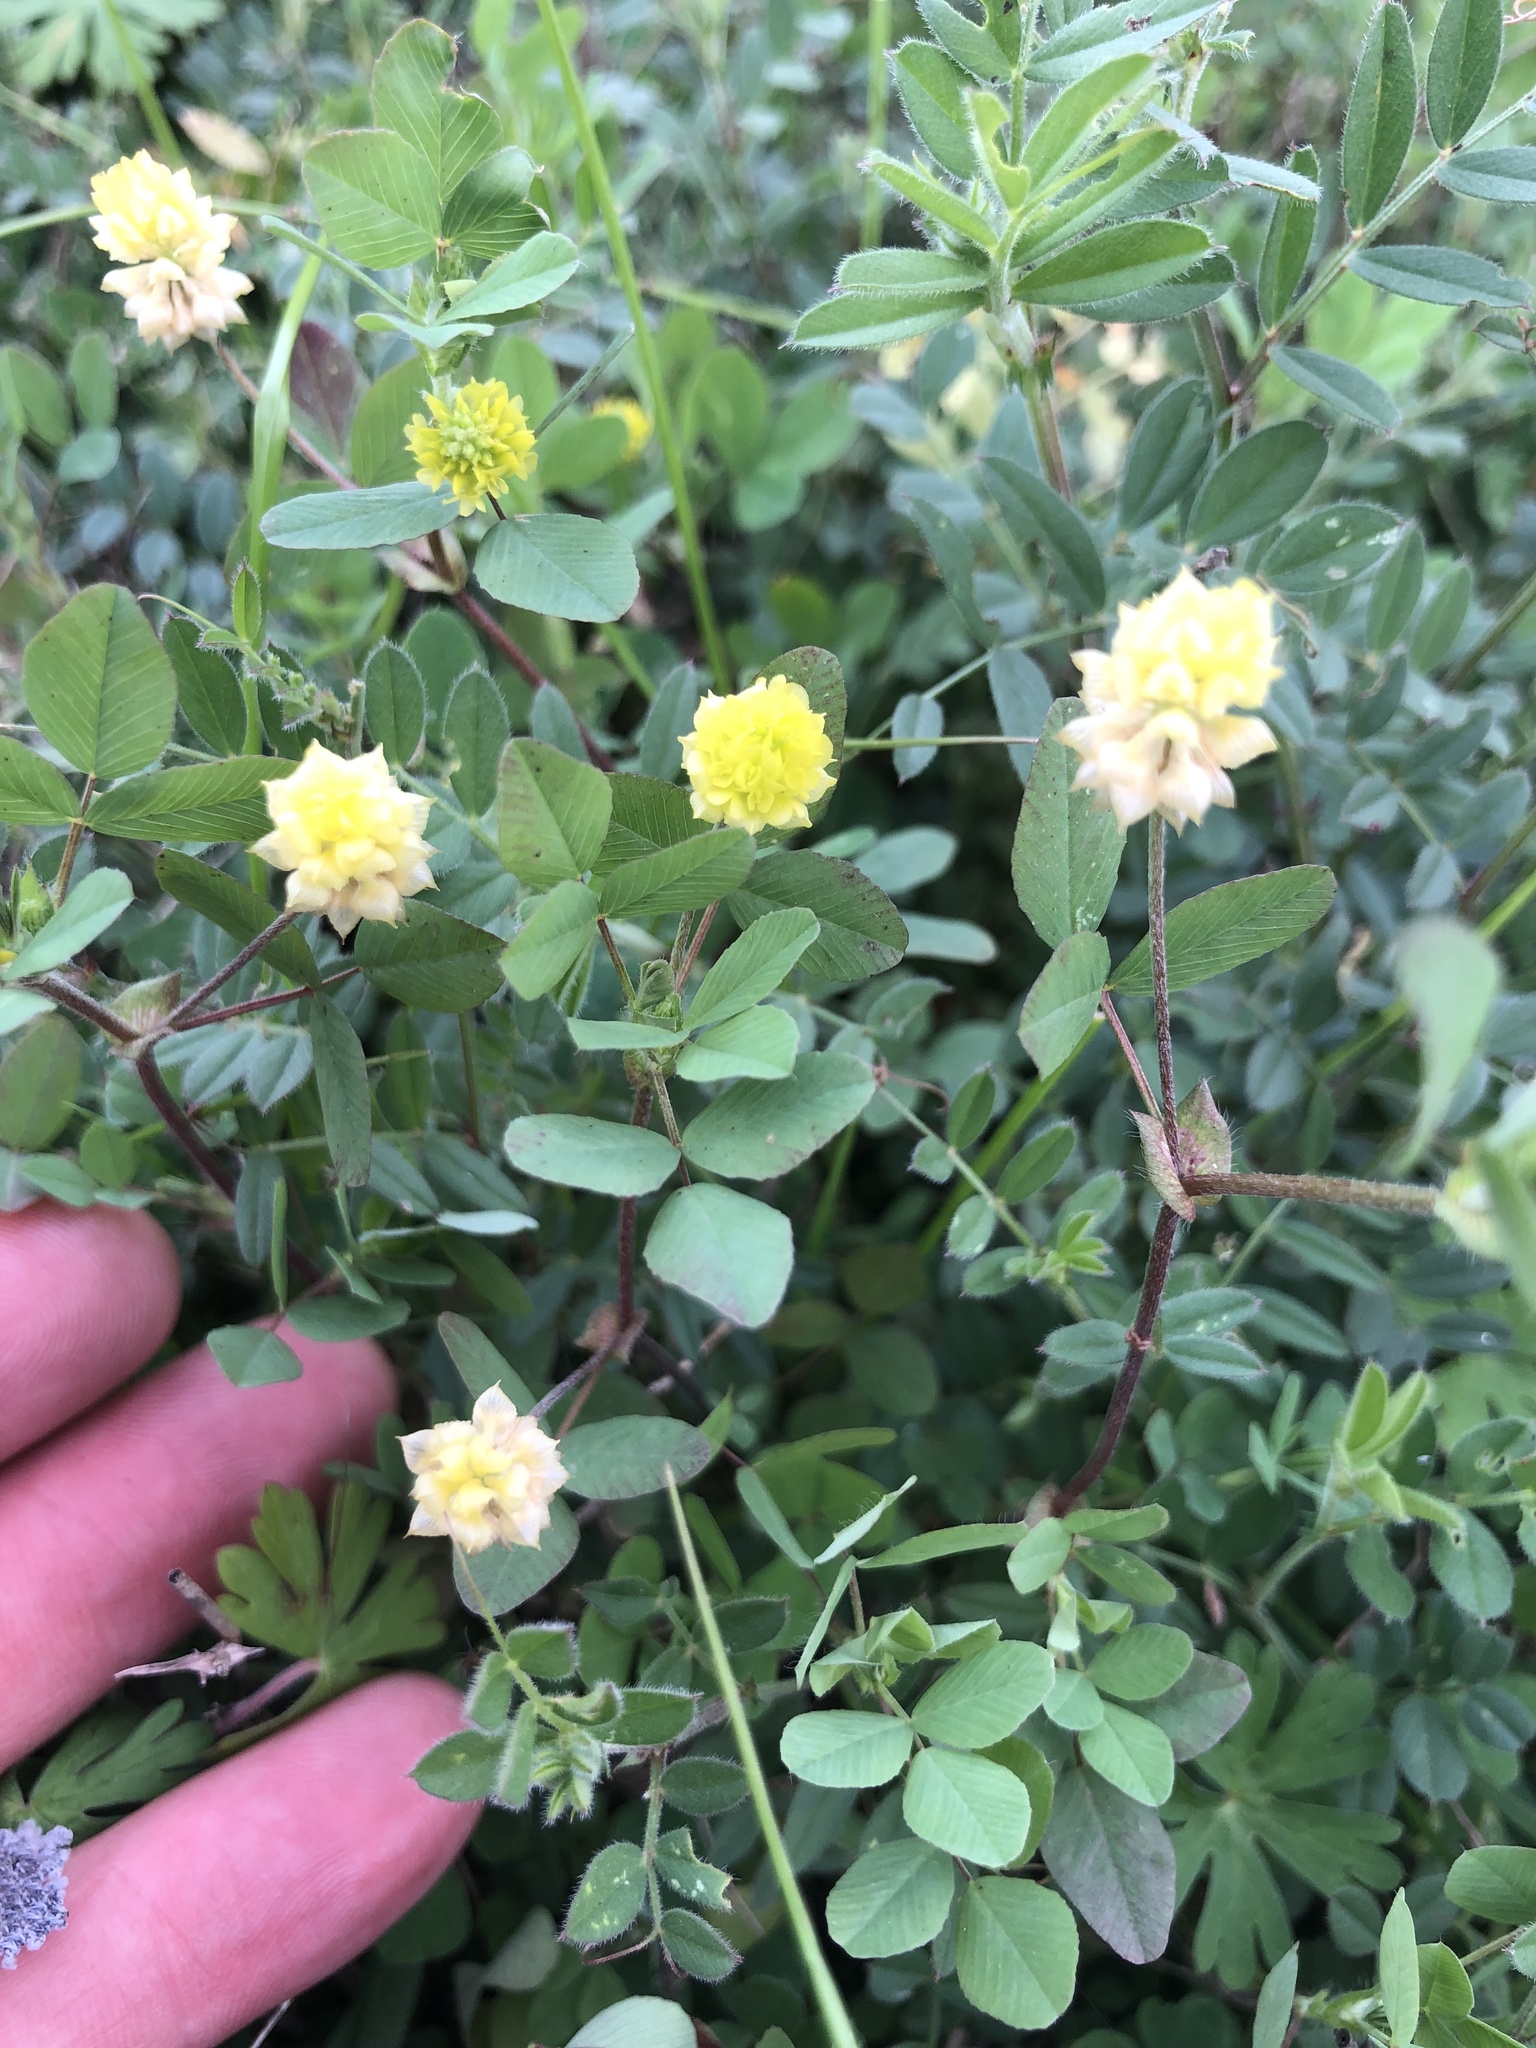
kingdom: Plantae
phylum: Tracheophyta
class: Magnoliopsida
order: Fabales
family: Fabaceae
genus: Trifolium
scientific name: Trifolium campestre
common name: Field clover
